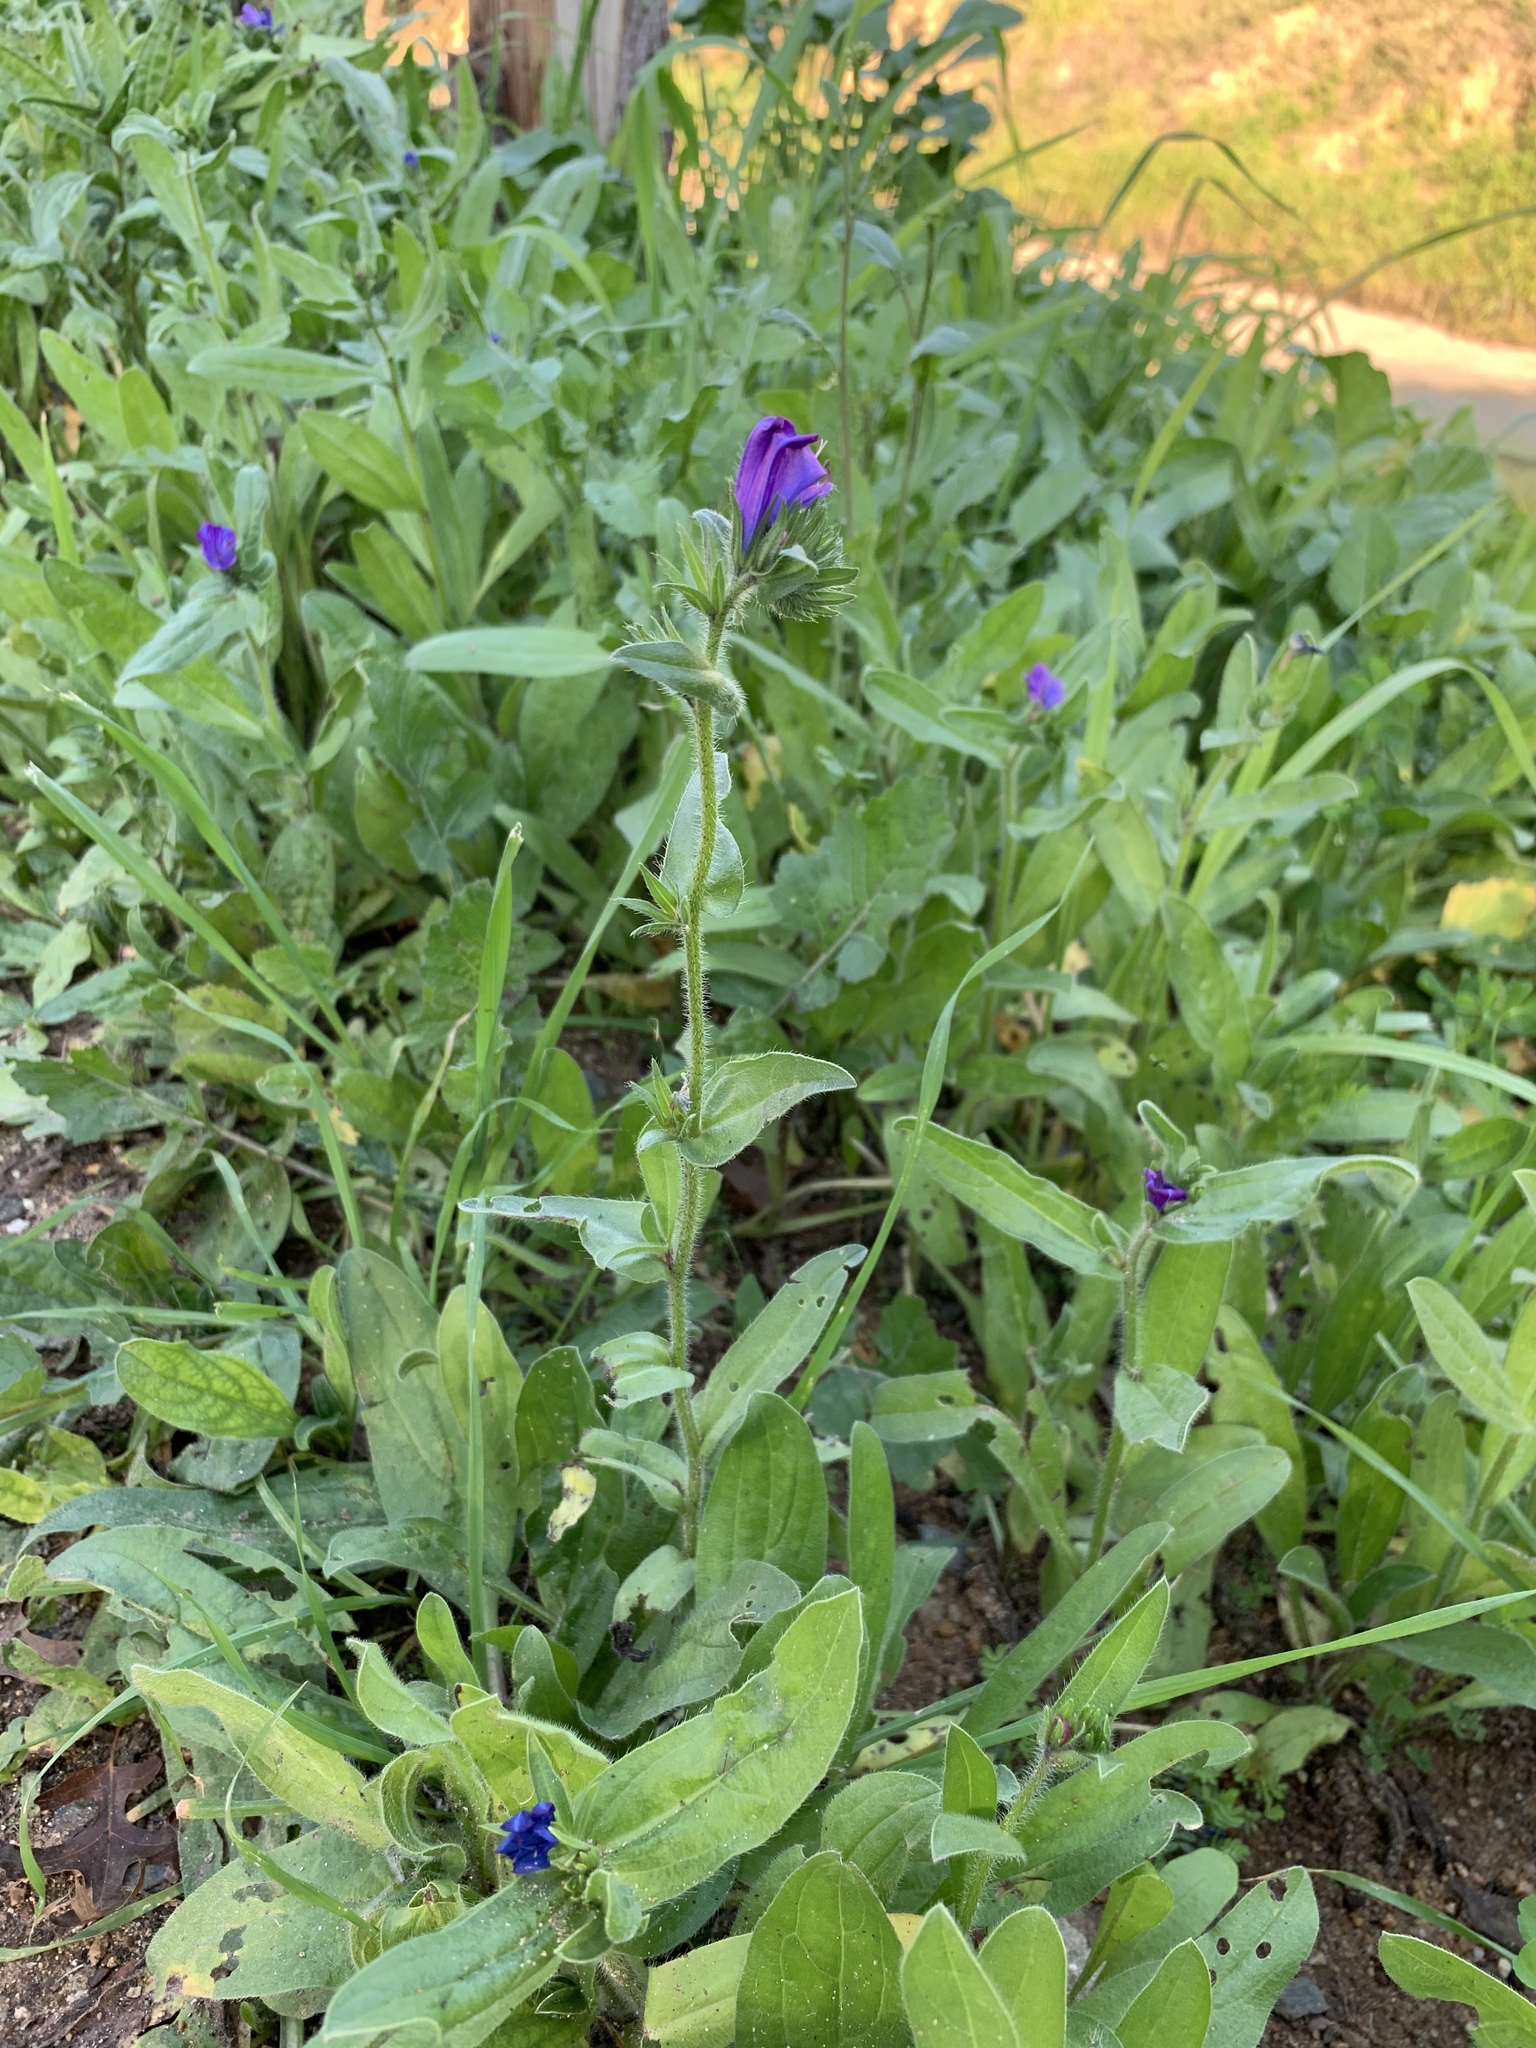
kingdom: Plantae
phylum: Tracheophyta
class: Magnoliopsida
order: Boraginales
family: Boraginaceae
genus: Echium
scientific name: Echium plantagineum
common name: Purple viper's-bugloss
